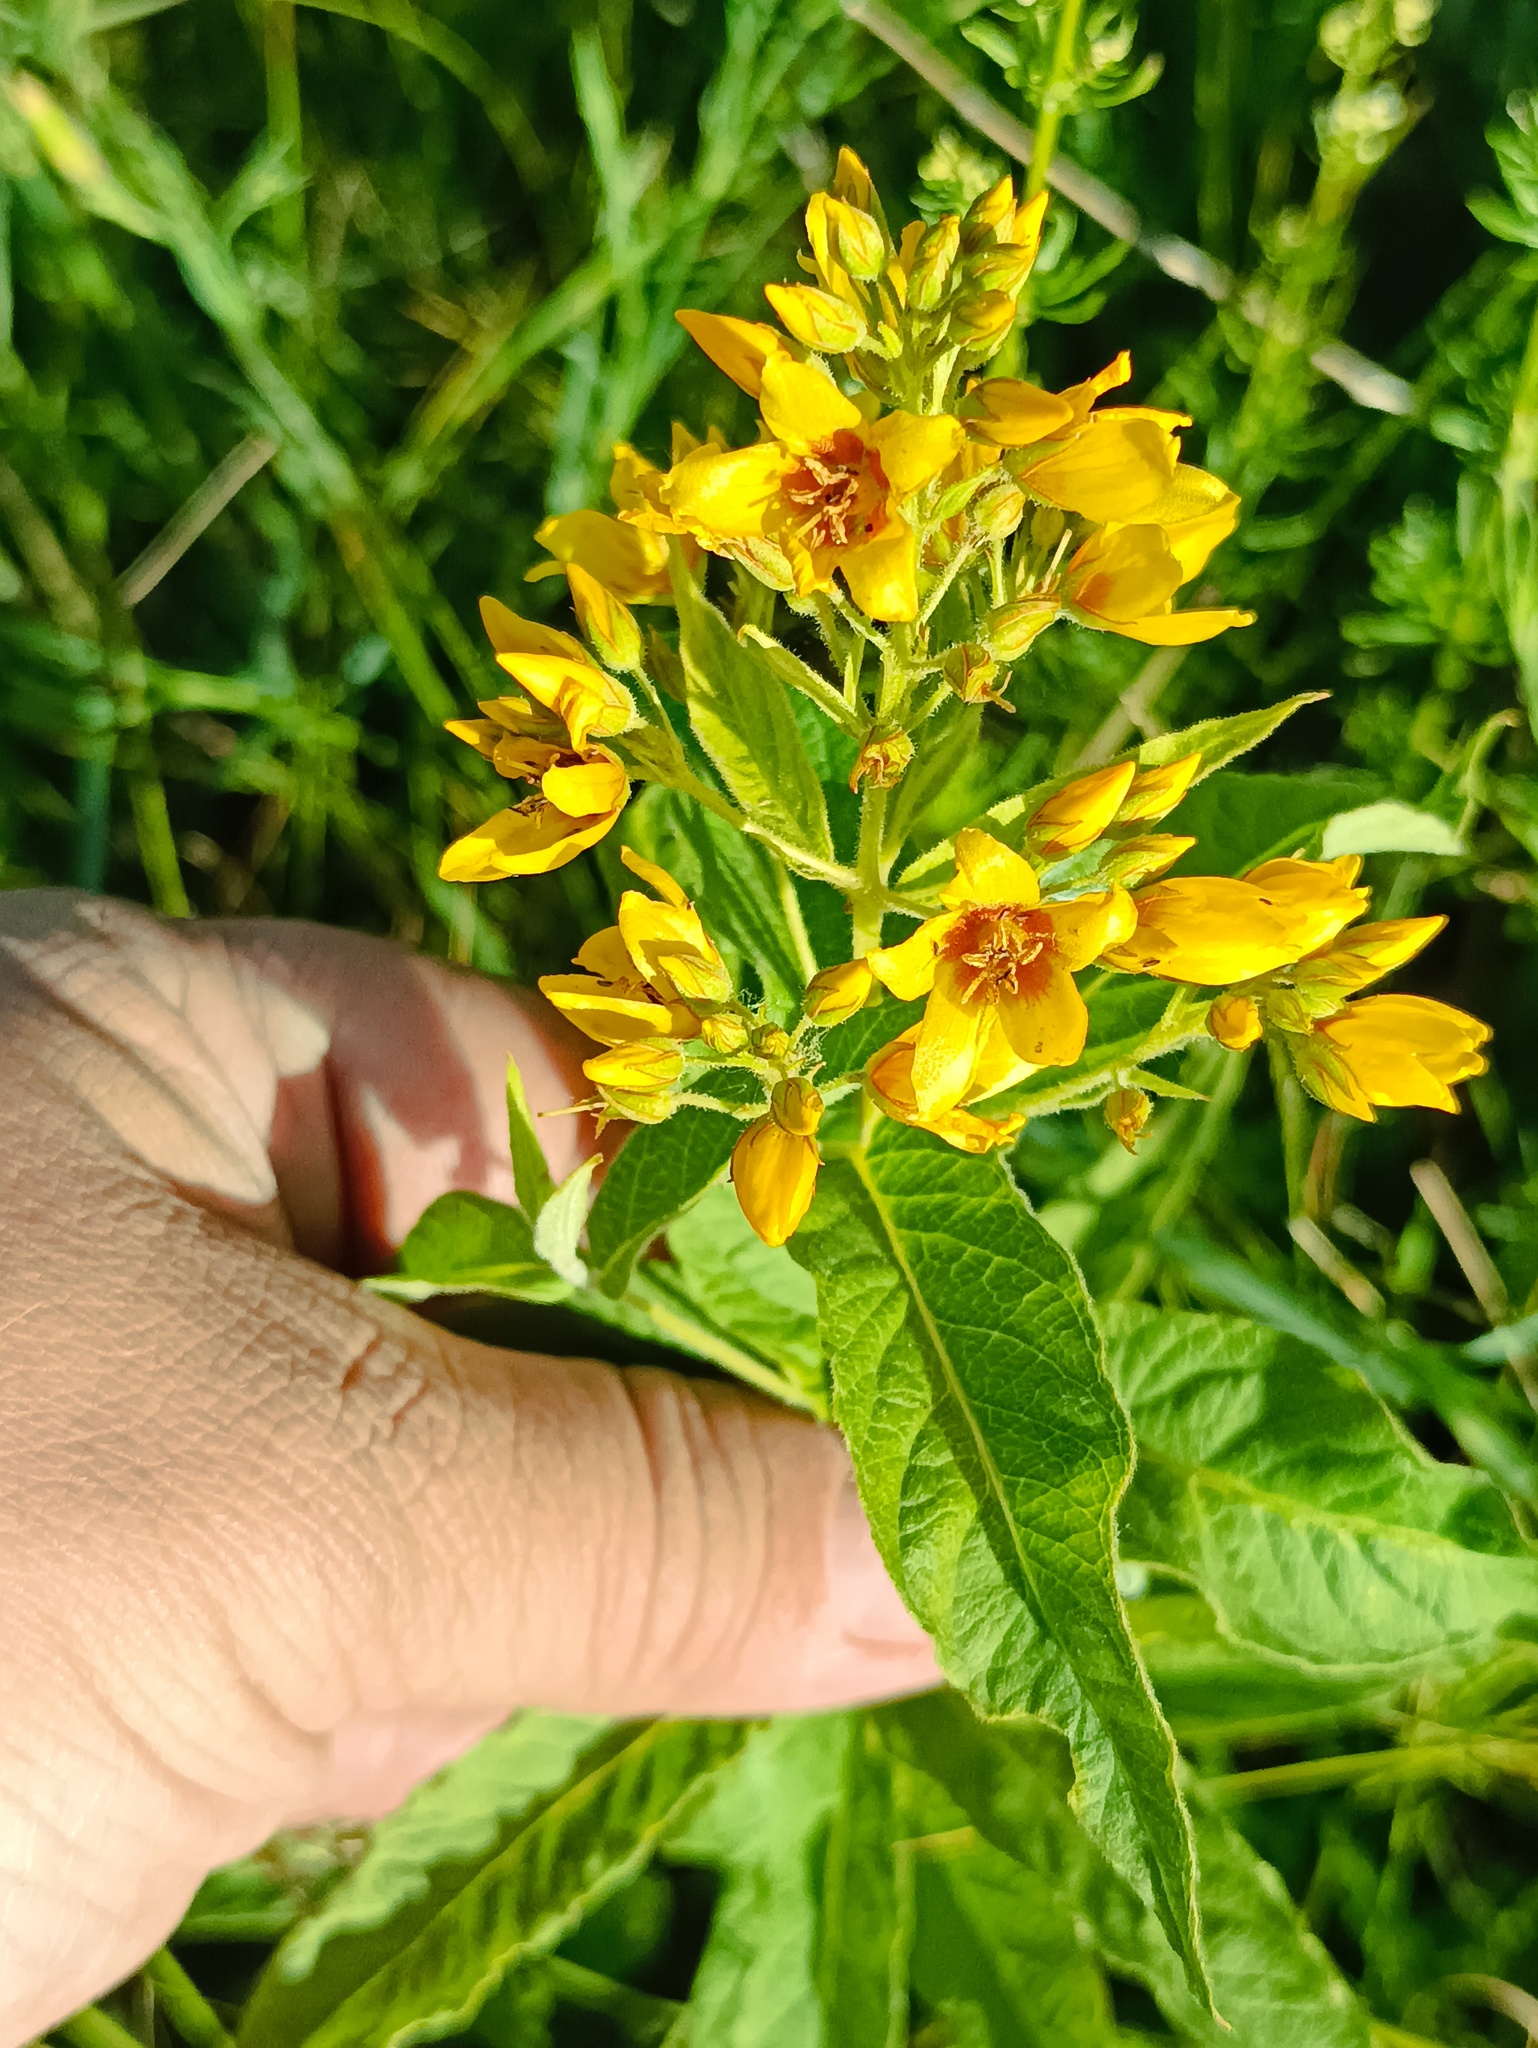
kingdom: Plantae
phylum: Tracheophyta
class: Magnoliopsida
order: Ericales
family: Primulaceae
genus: Lysimachia
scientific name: Lysimachia vulgaris
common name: Yellow loosestrife
